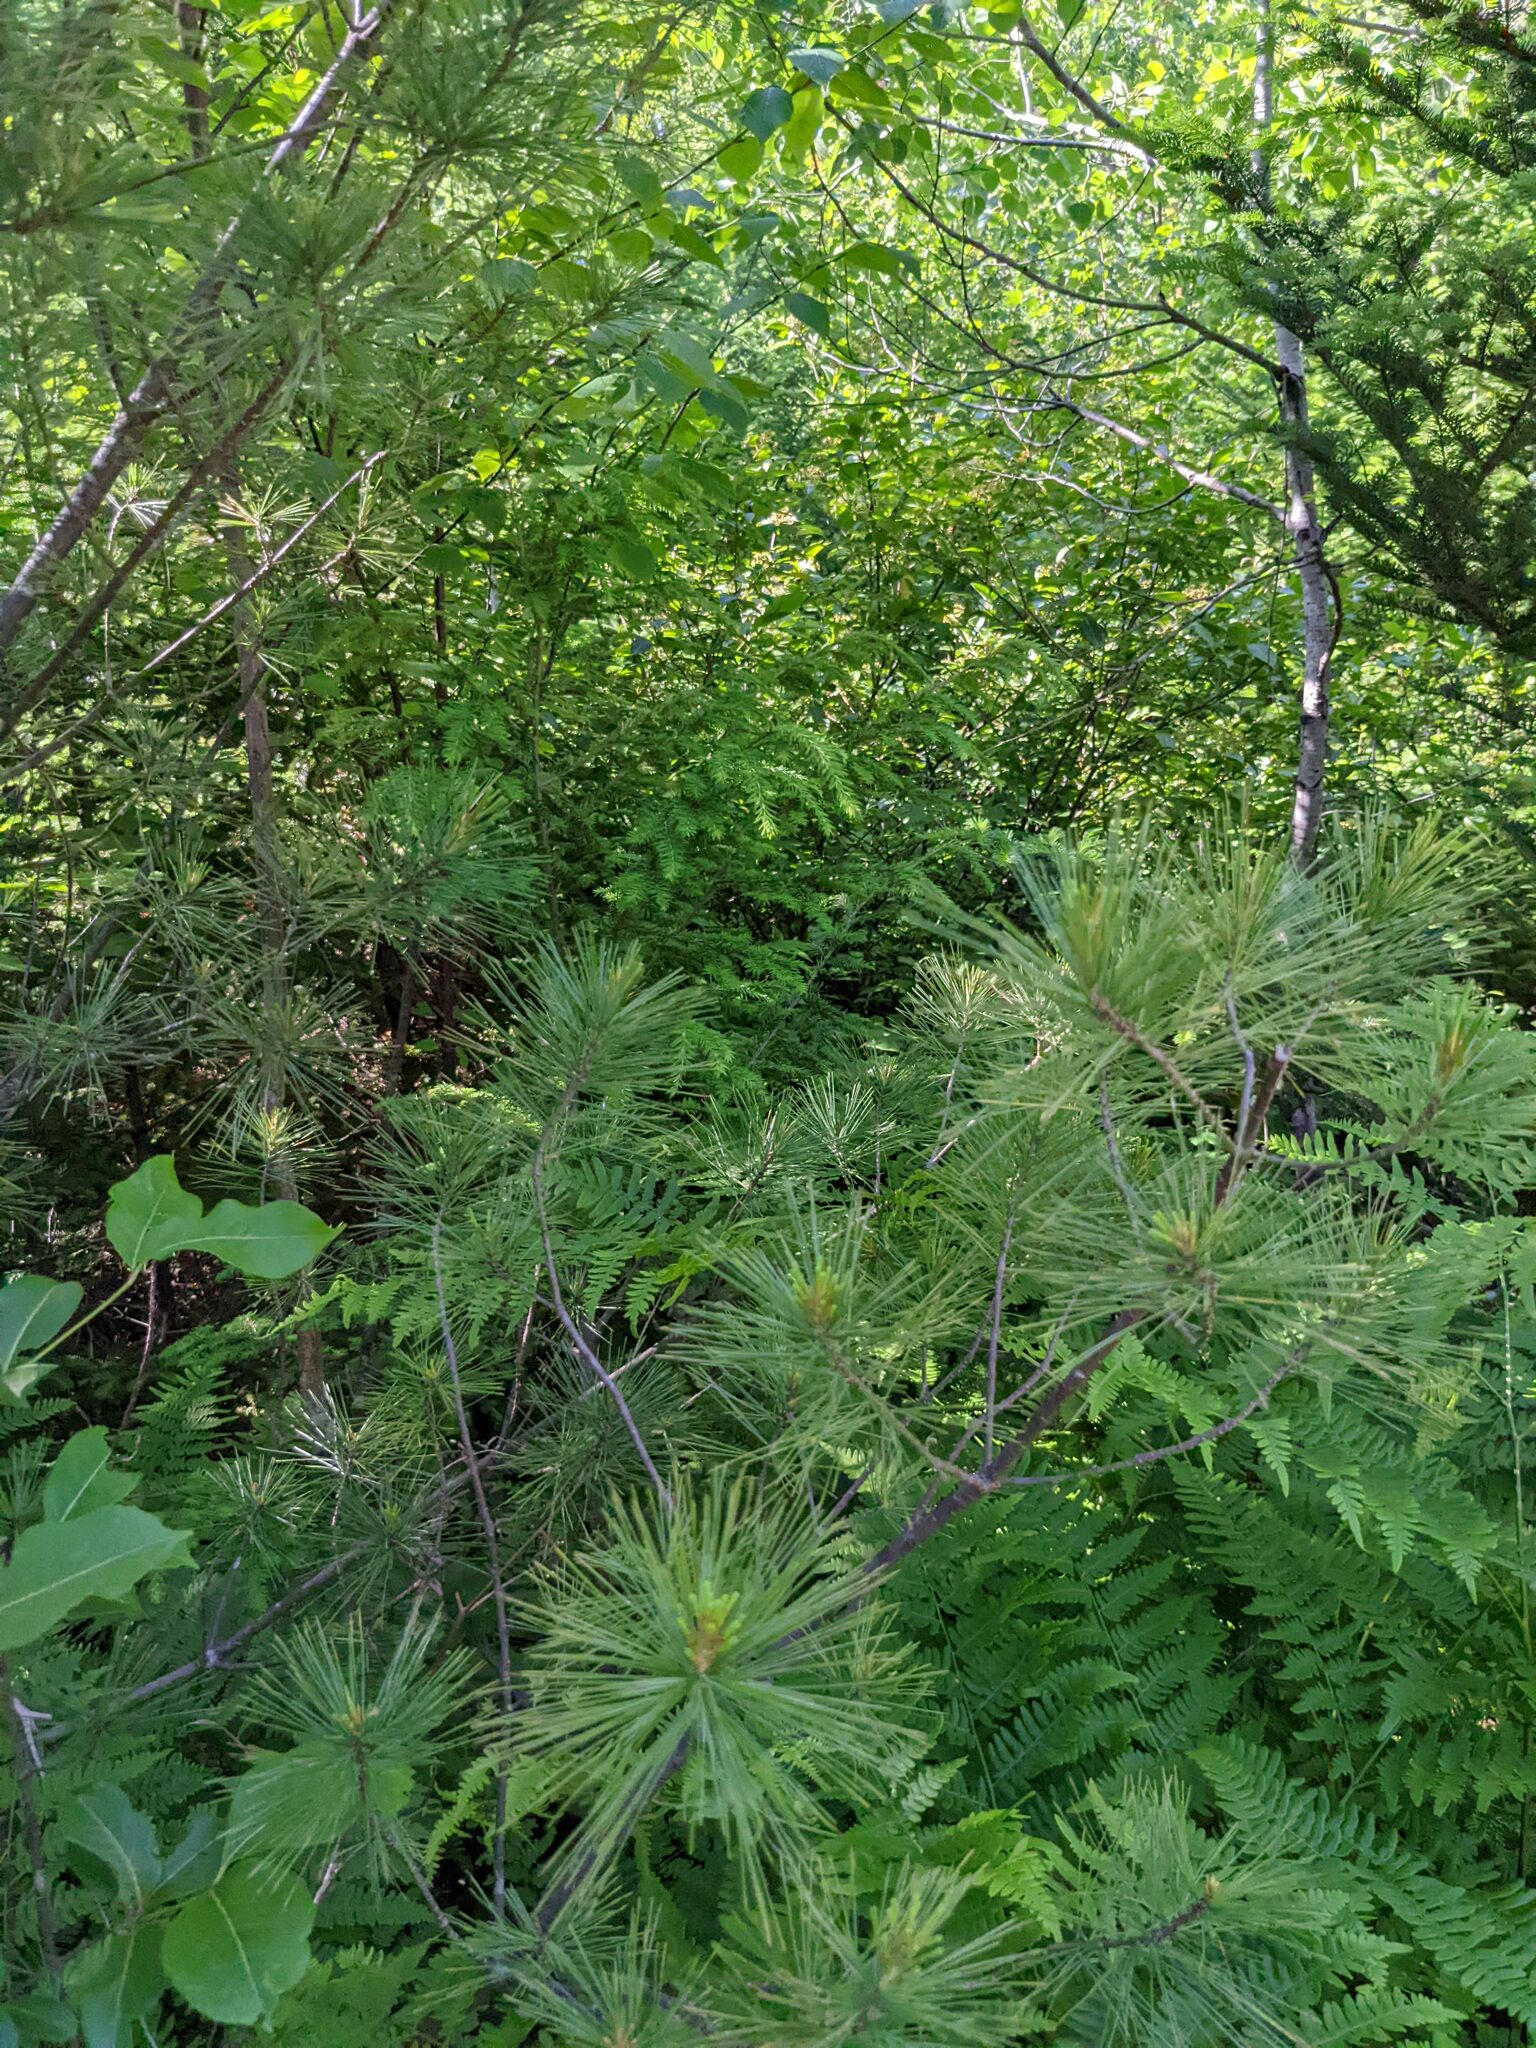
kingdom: Plantae
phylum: Tracheophyta
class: Pinopsida
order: Pinales
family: Pinaceae
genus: Pinus
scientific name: Pinus strobus
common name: Weymouth pine
